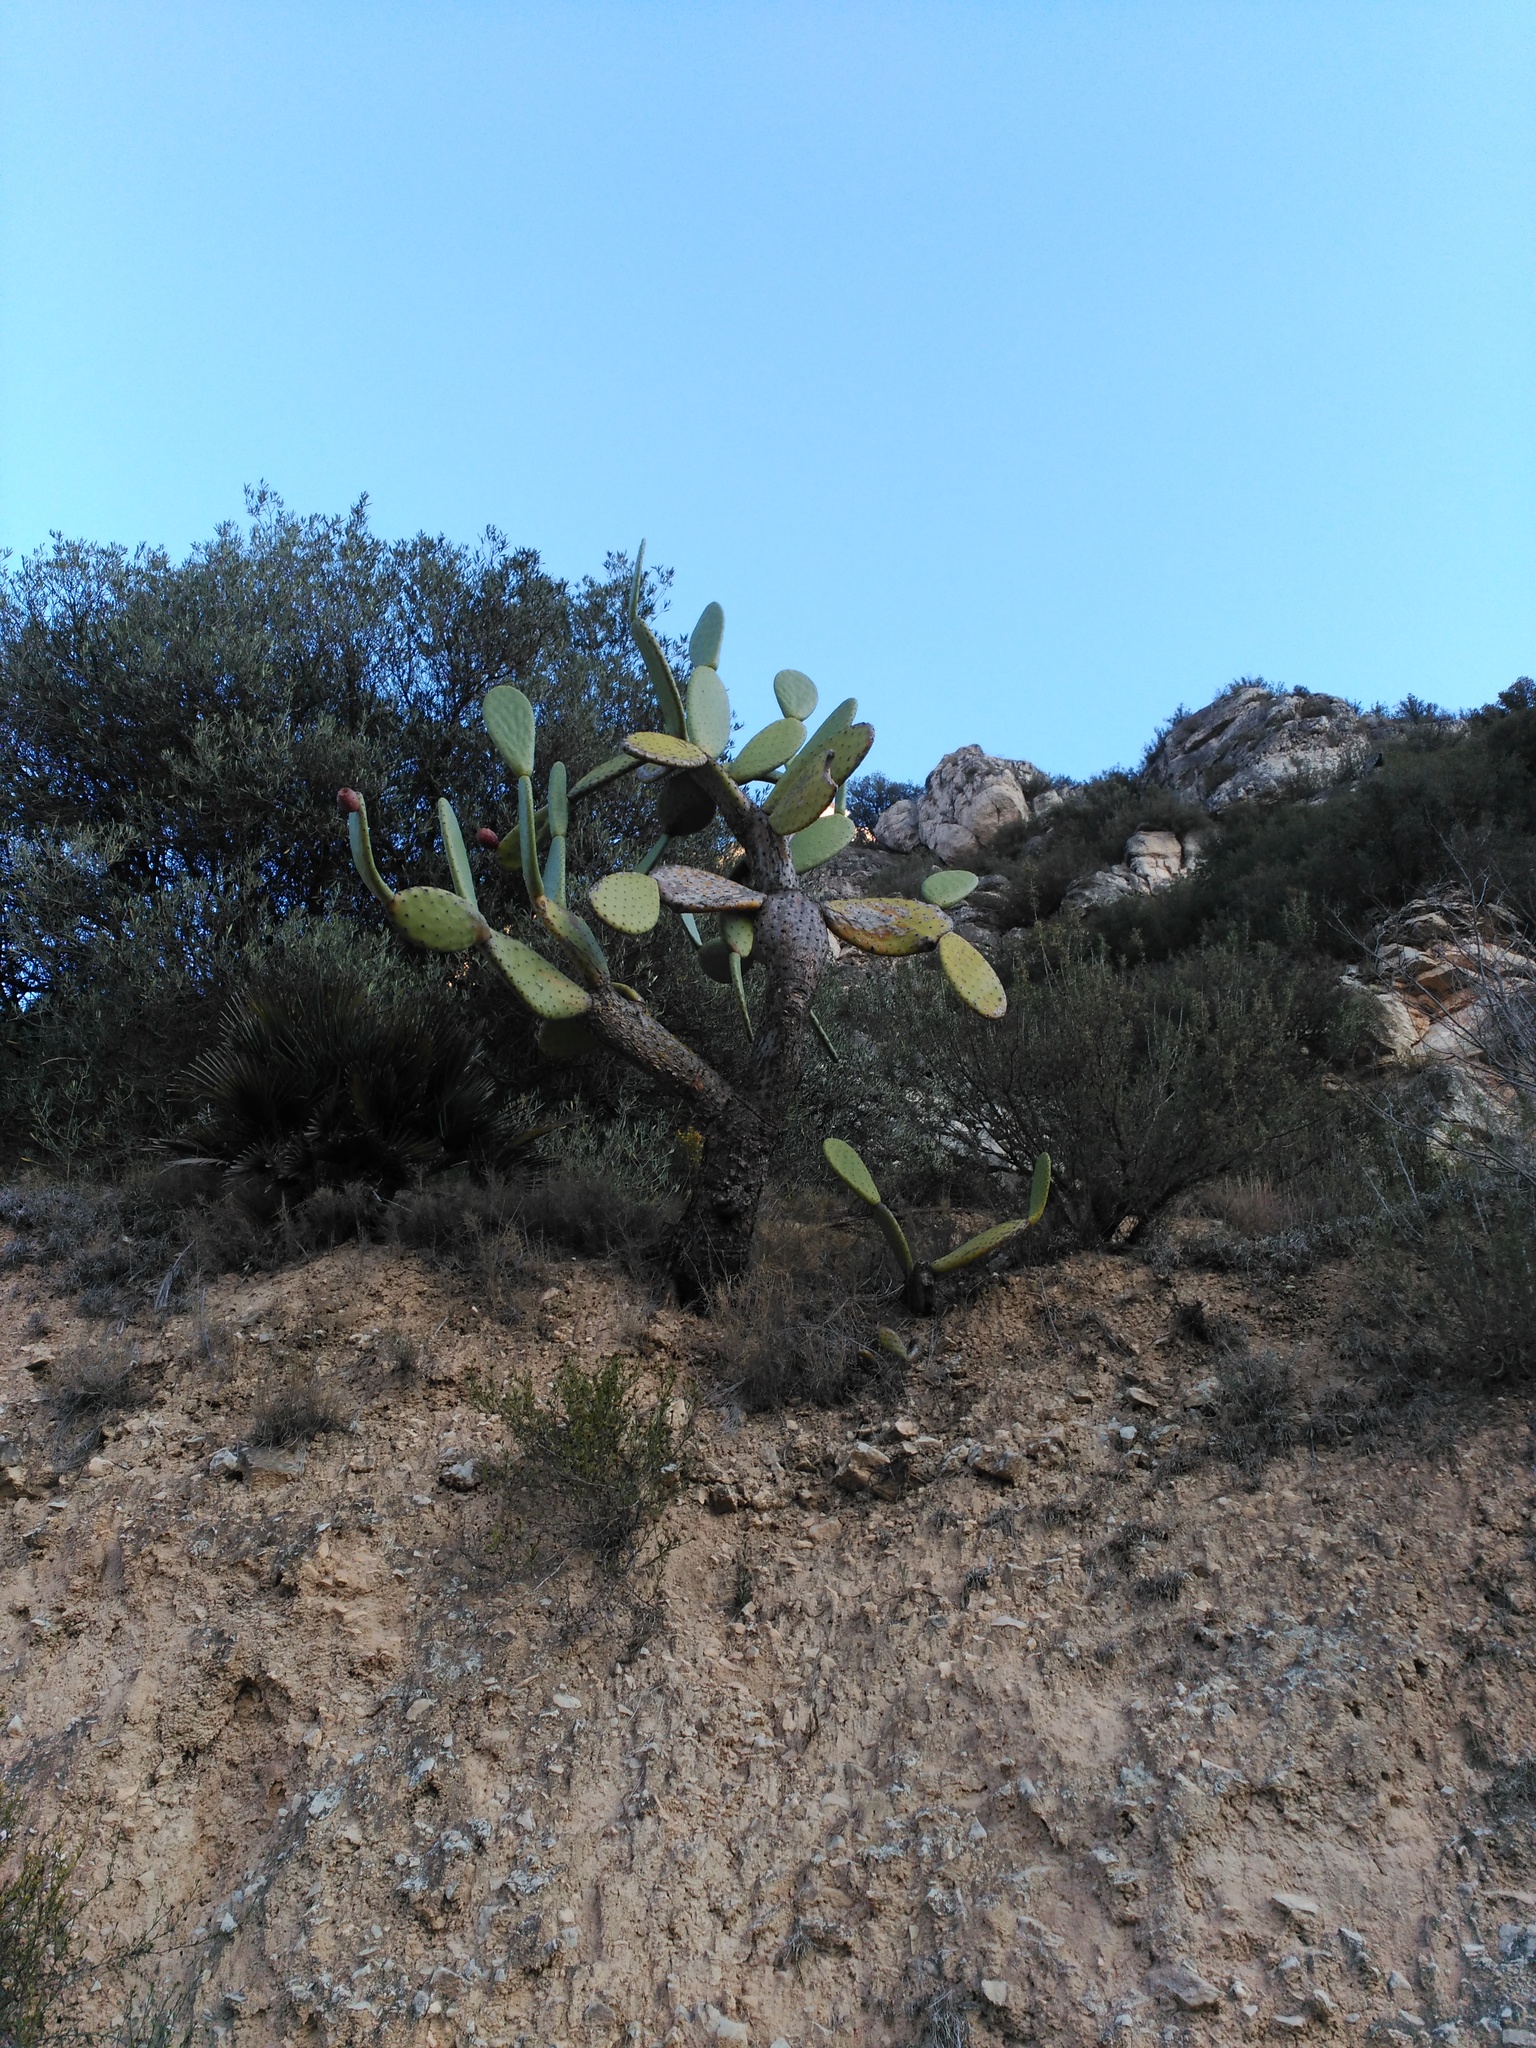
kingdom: Plantae
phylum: Tracheophyta
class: Magnoliopsida
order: Caryophyllales
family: Cactaceae
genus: Opuntia
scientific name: Opuntia ficus-indica
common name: Barbary fig
